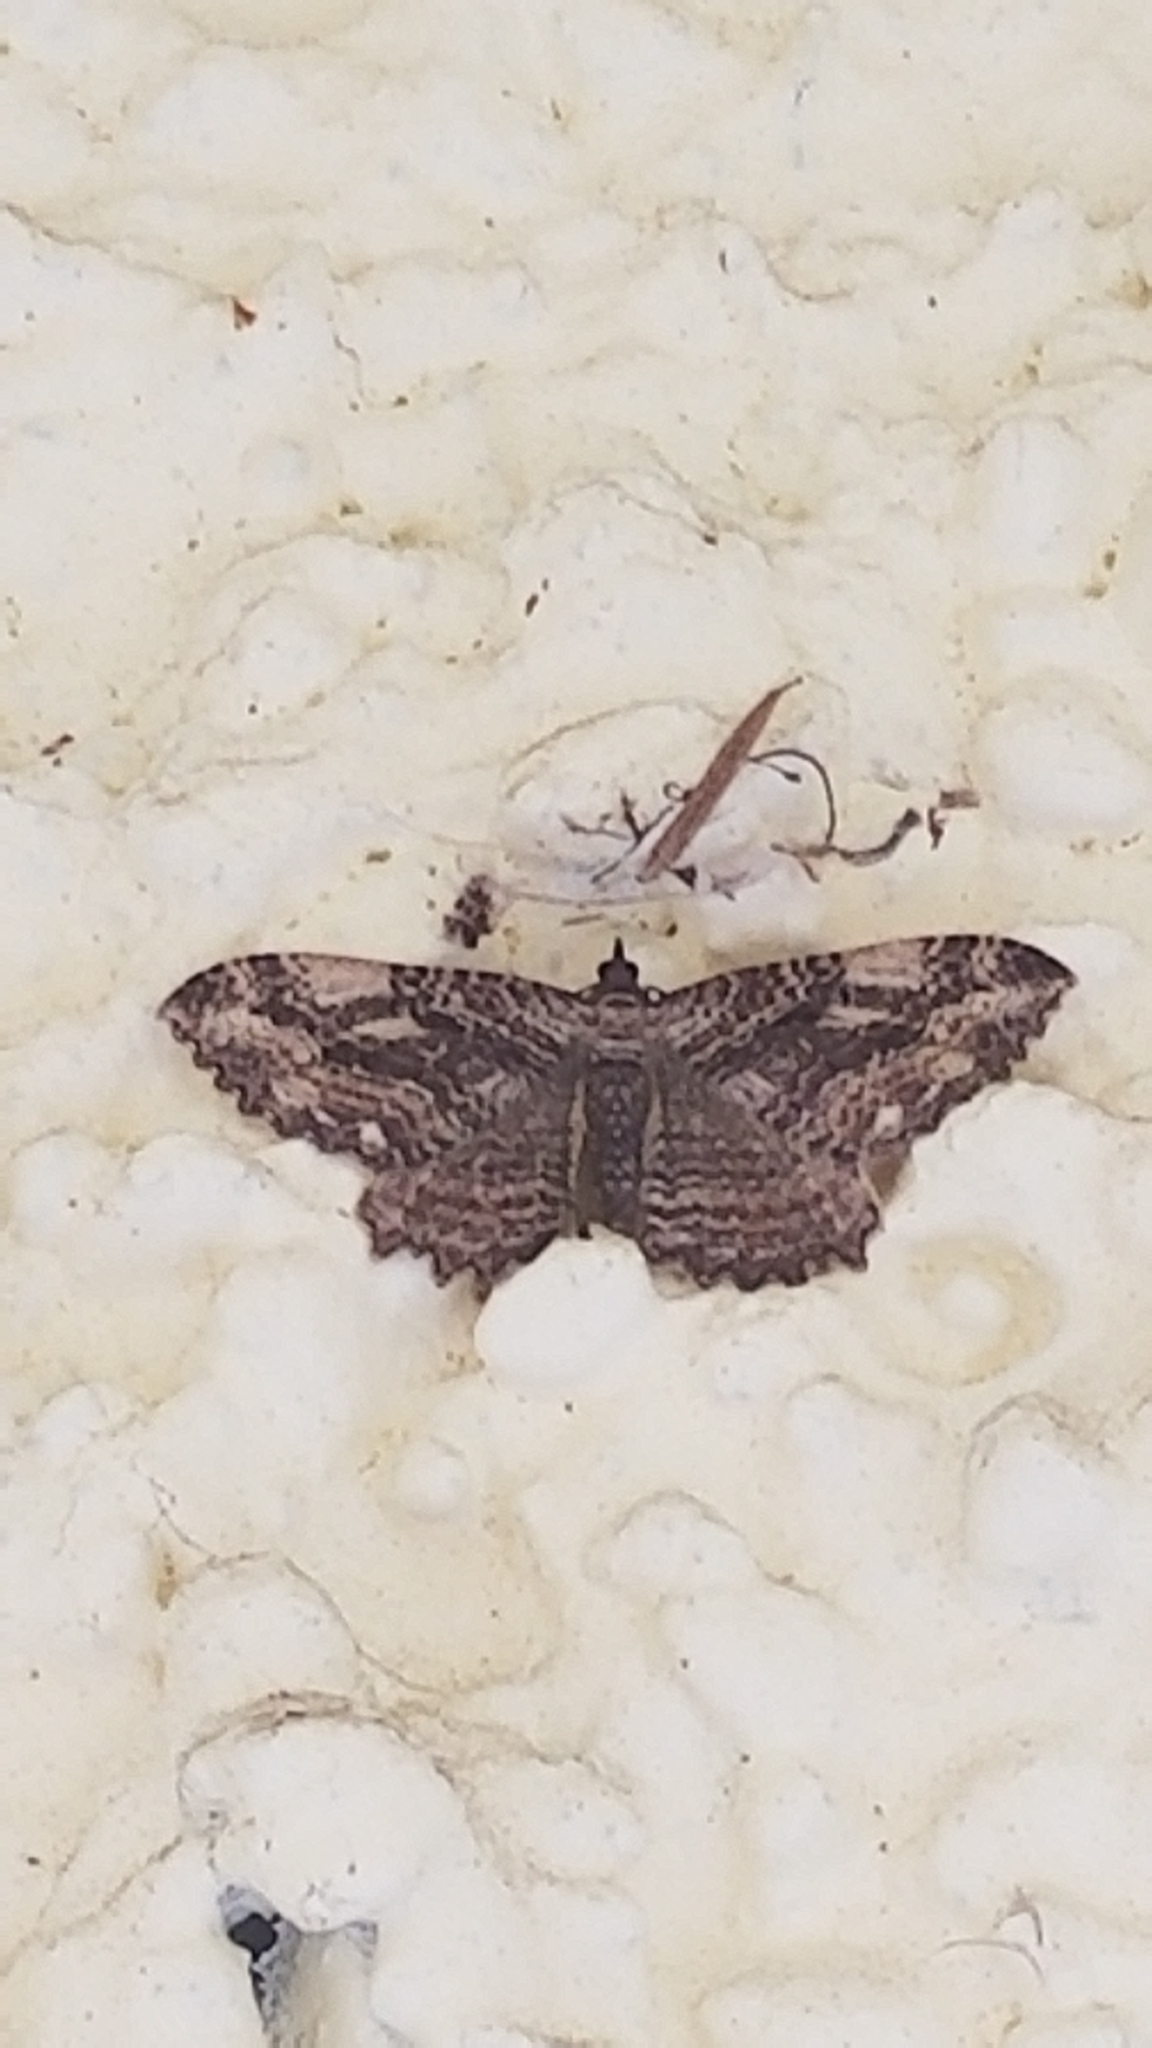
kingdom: Animalia
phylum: Arthropoda
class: Insecta
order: Lepidoptera
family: Geometridae
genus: Rheumaptera
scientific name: Rheumaptera
